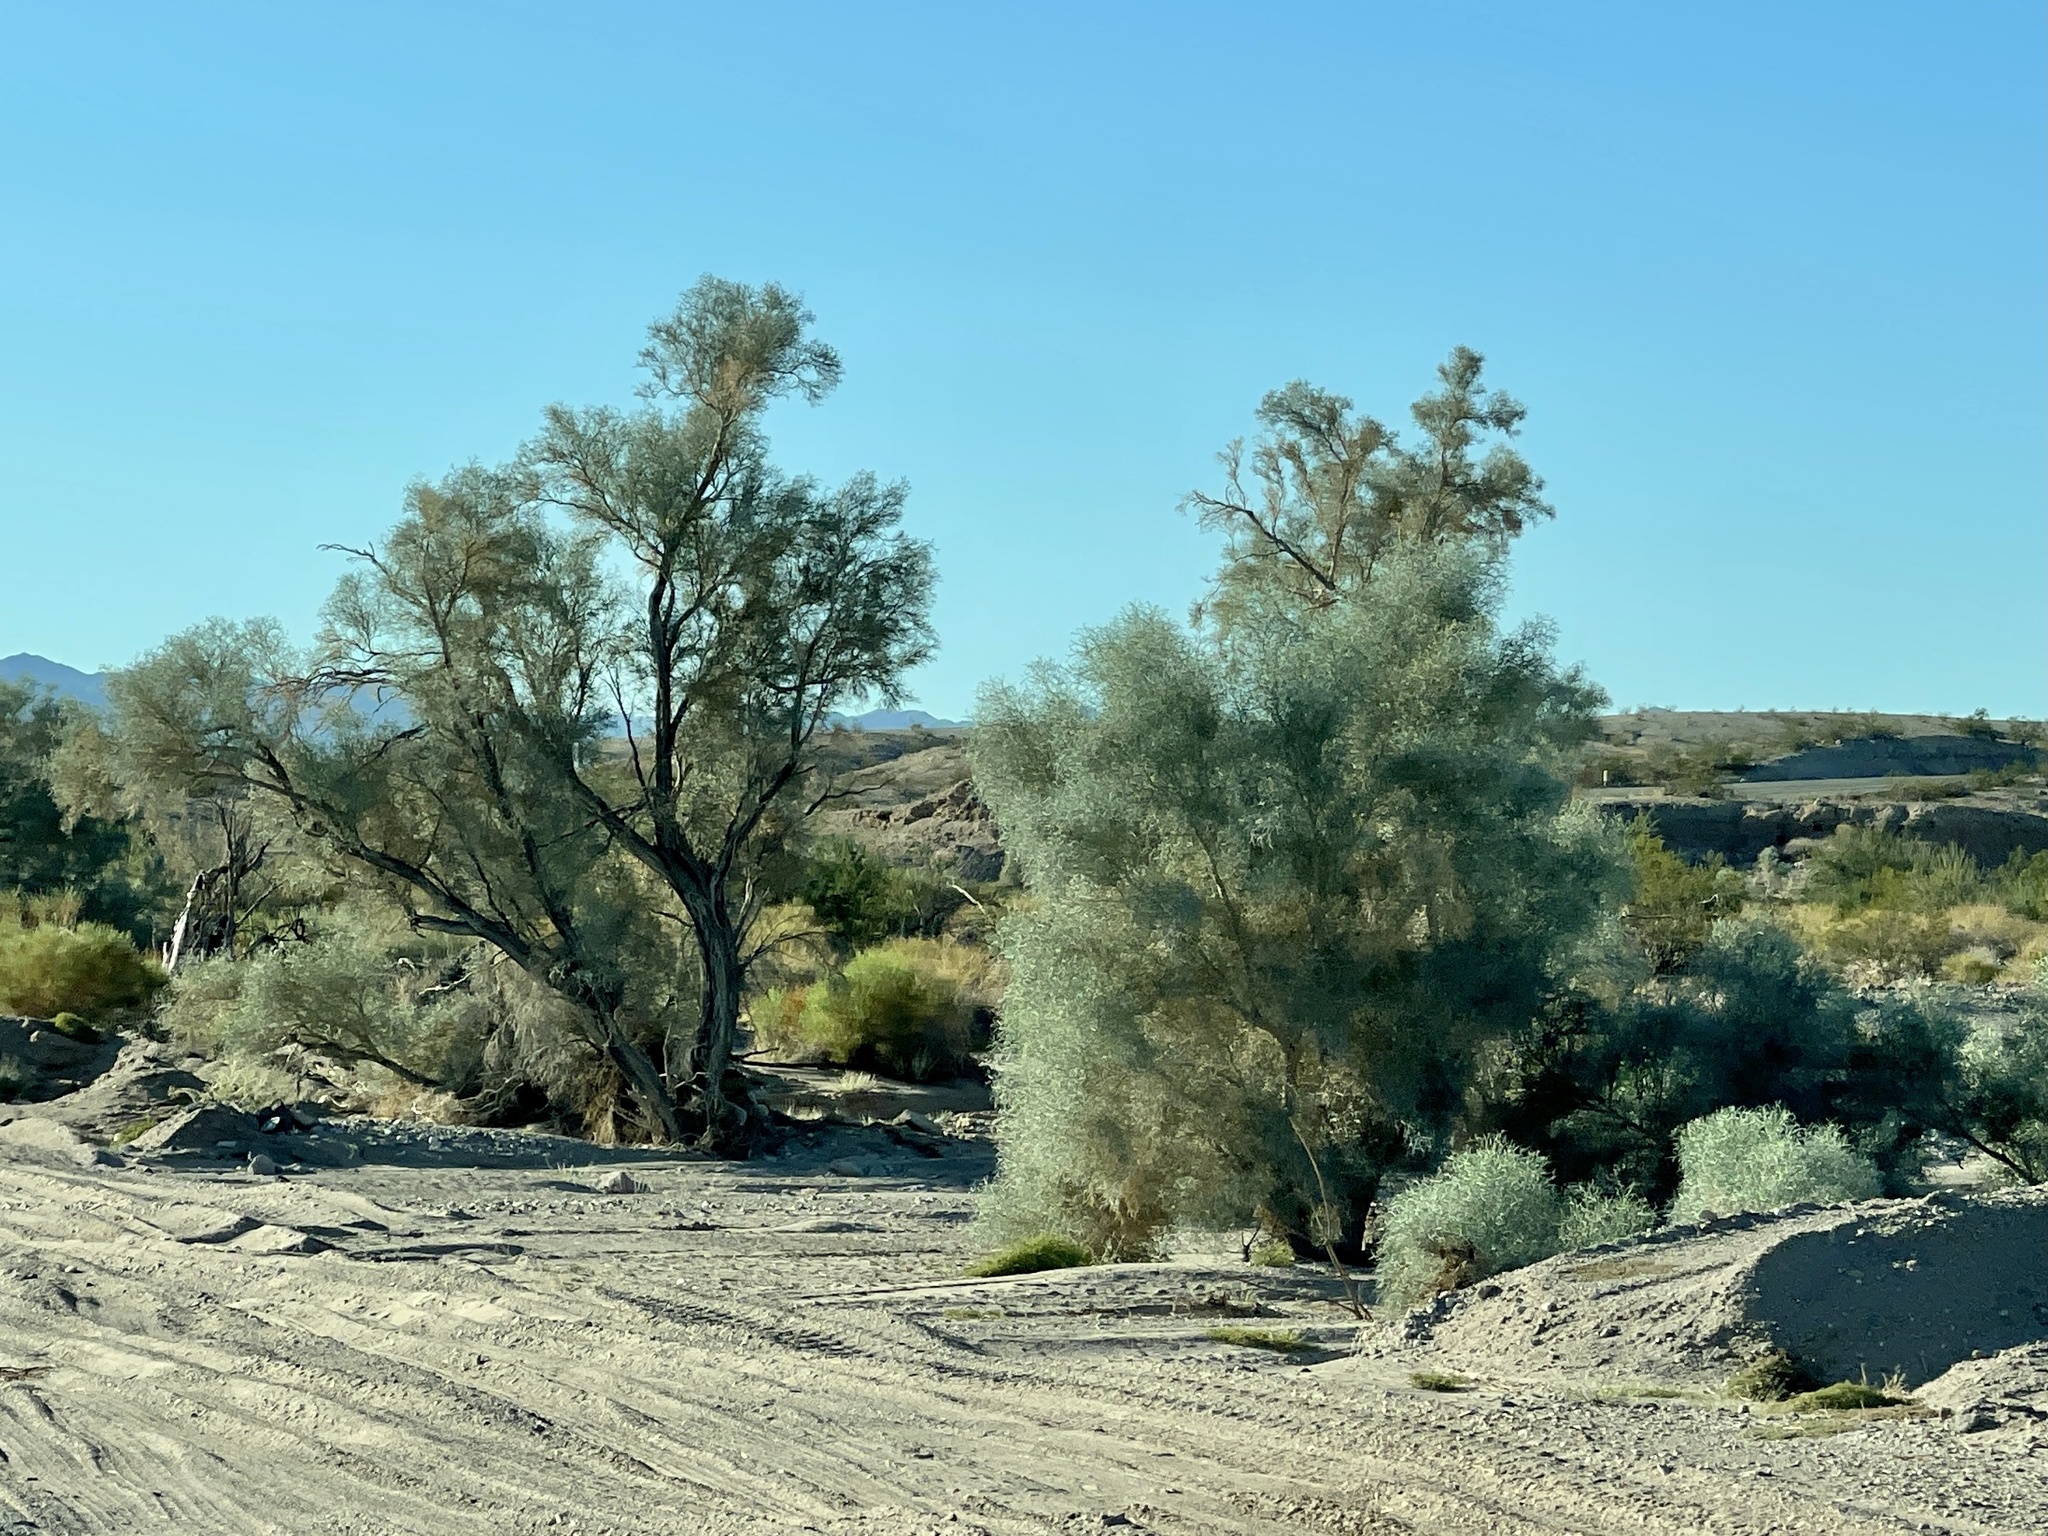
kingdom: Plantae
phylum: Tracheophyta
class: Magnoliopsida
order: Fabales
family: Fabaceae
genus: Psorothamnus
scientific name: Psorothamnus spinosus
